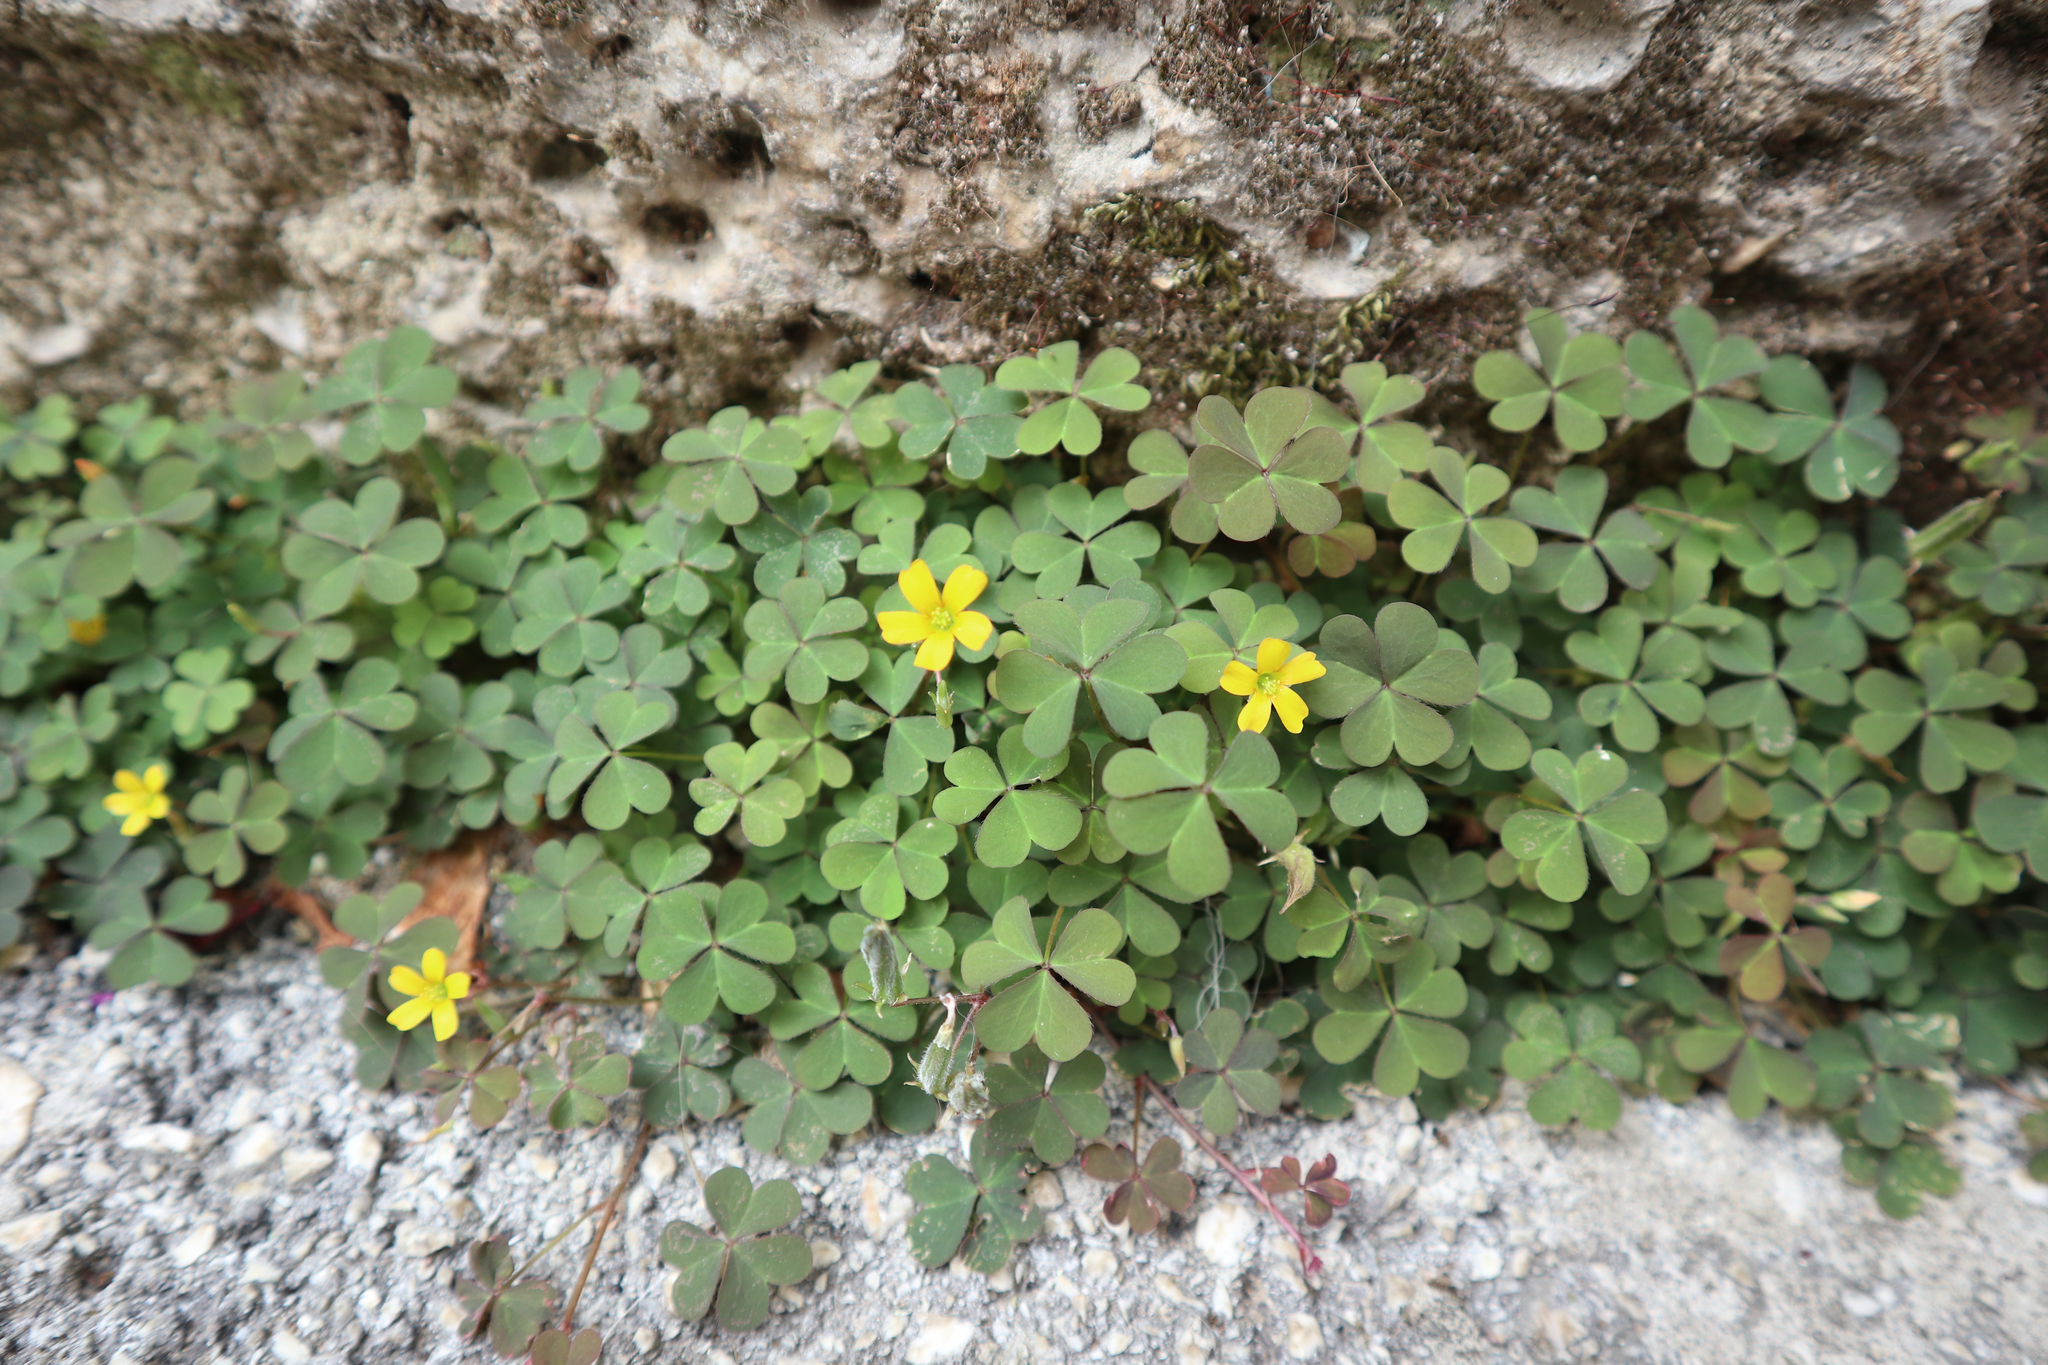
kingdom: Plantae
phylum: Tracheophyta
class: Magnoliopsida
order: Oxalidales
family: Oxalidaceae
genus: Oxalis
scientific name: Oxalis corniculata
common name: Procumbent yellow-sorrel
